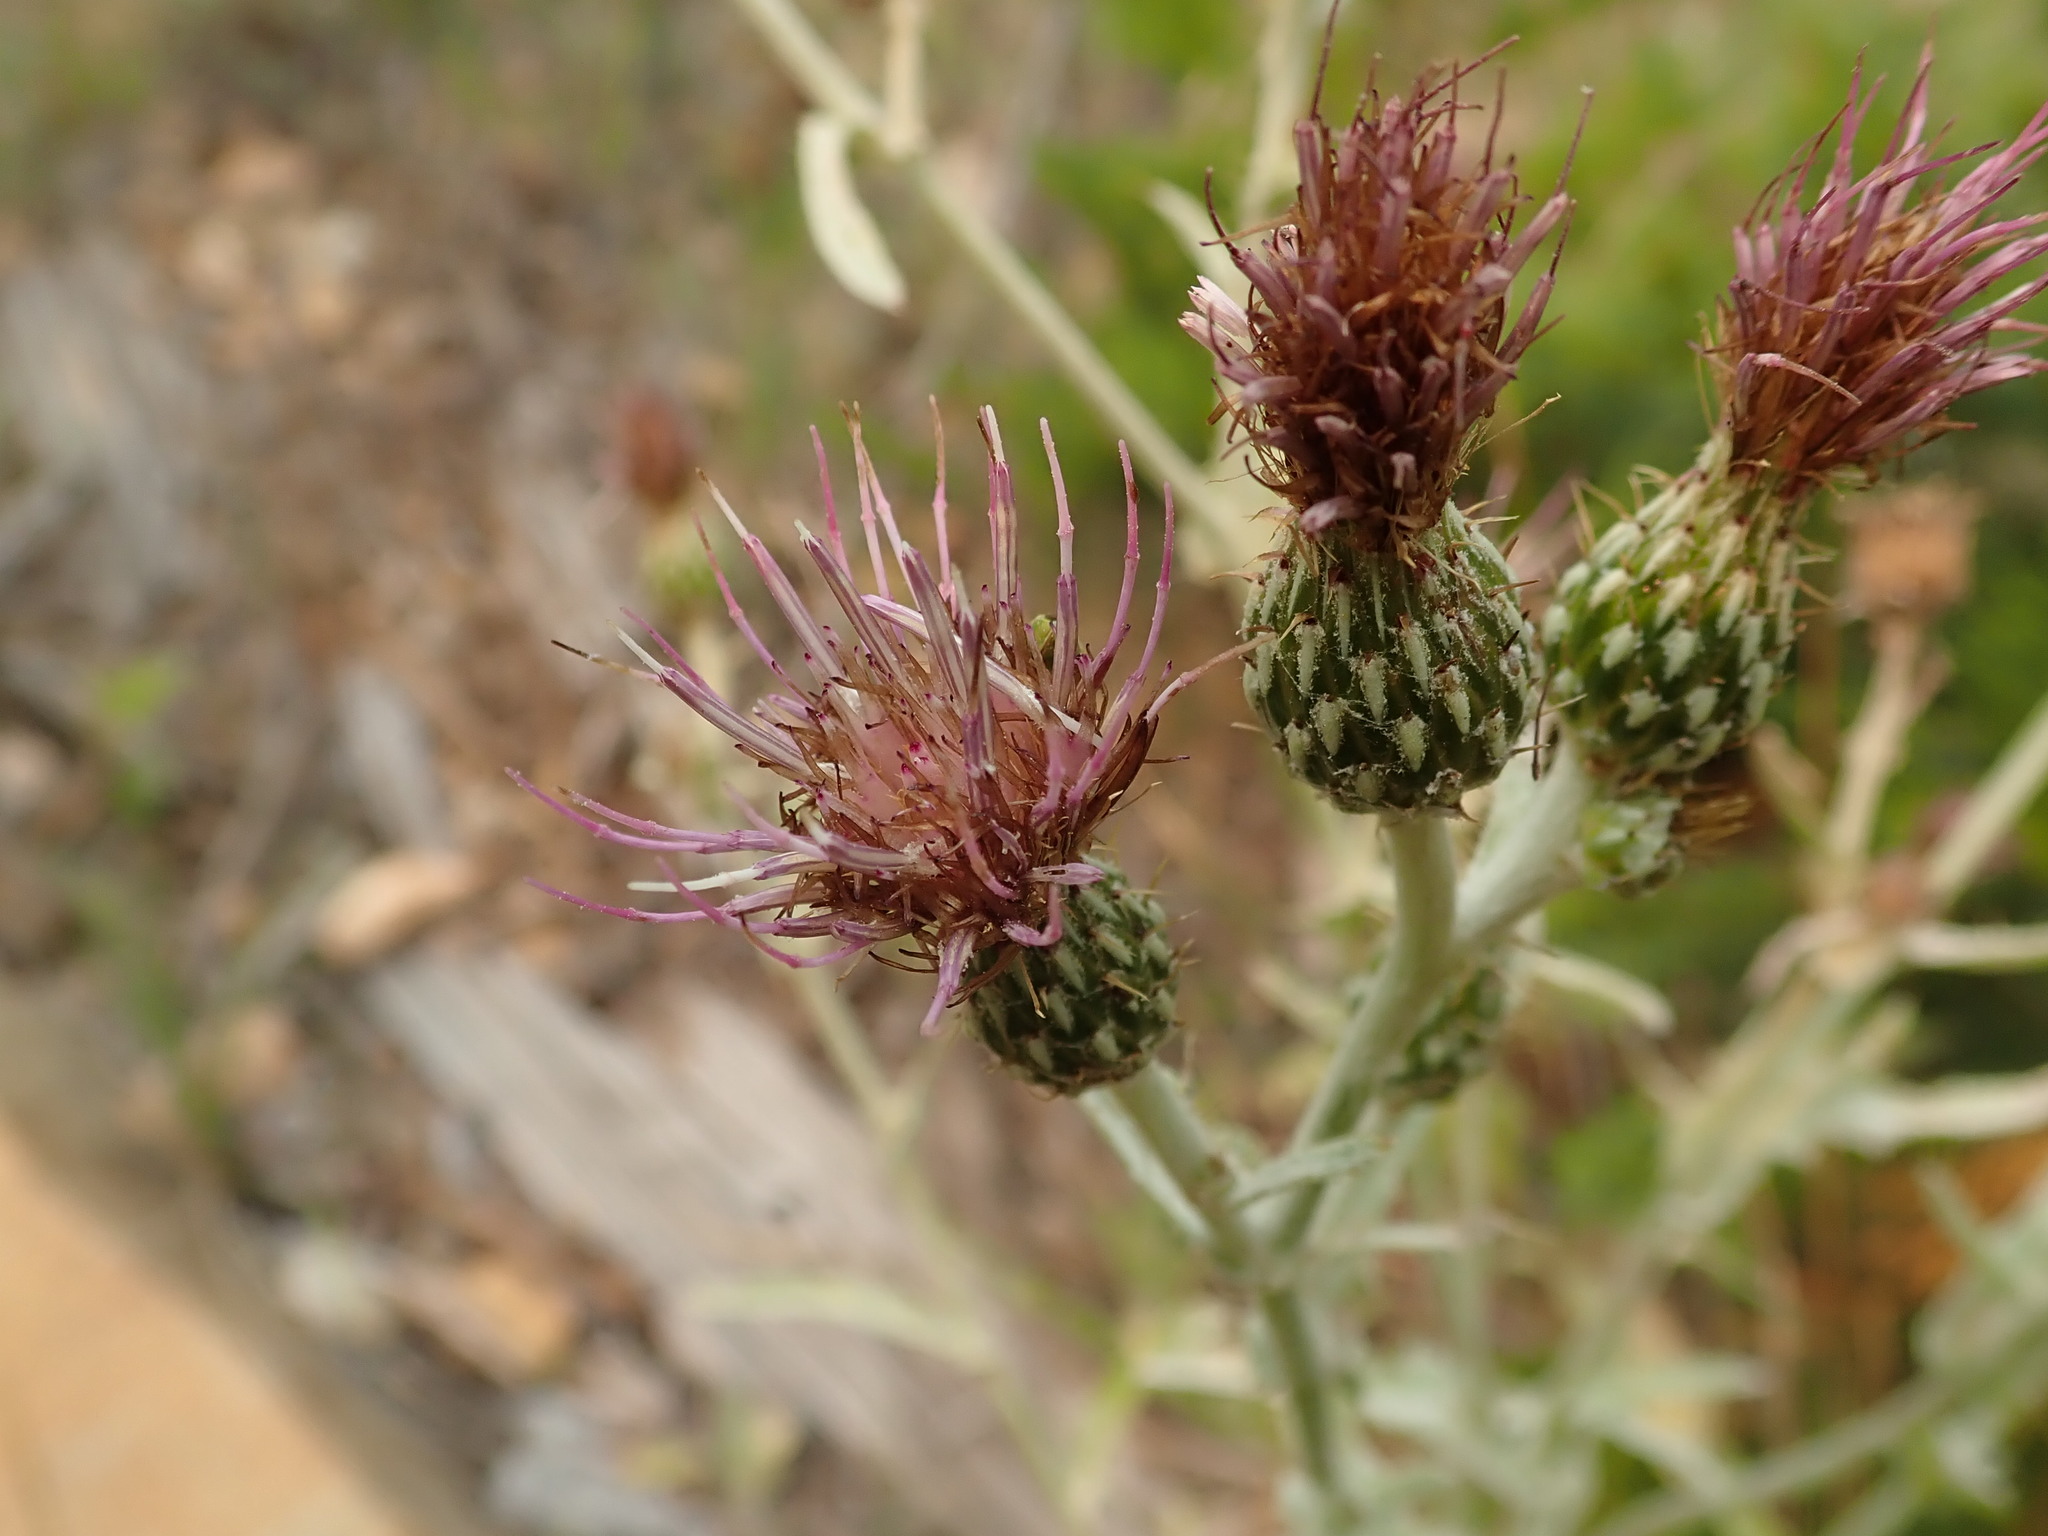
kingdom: Plantae
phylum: Tracheophyta
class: Magnoliopsida
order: Asterales
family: Asteraceae
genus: Cirsium
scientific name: Cirsium douglasii
